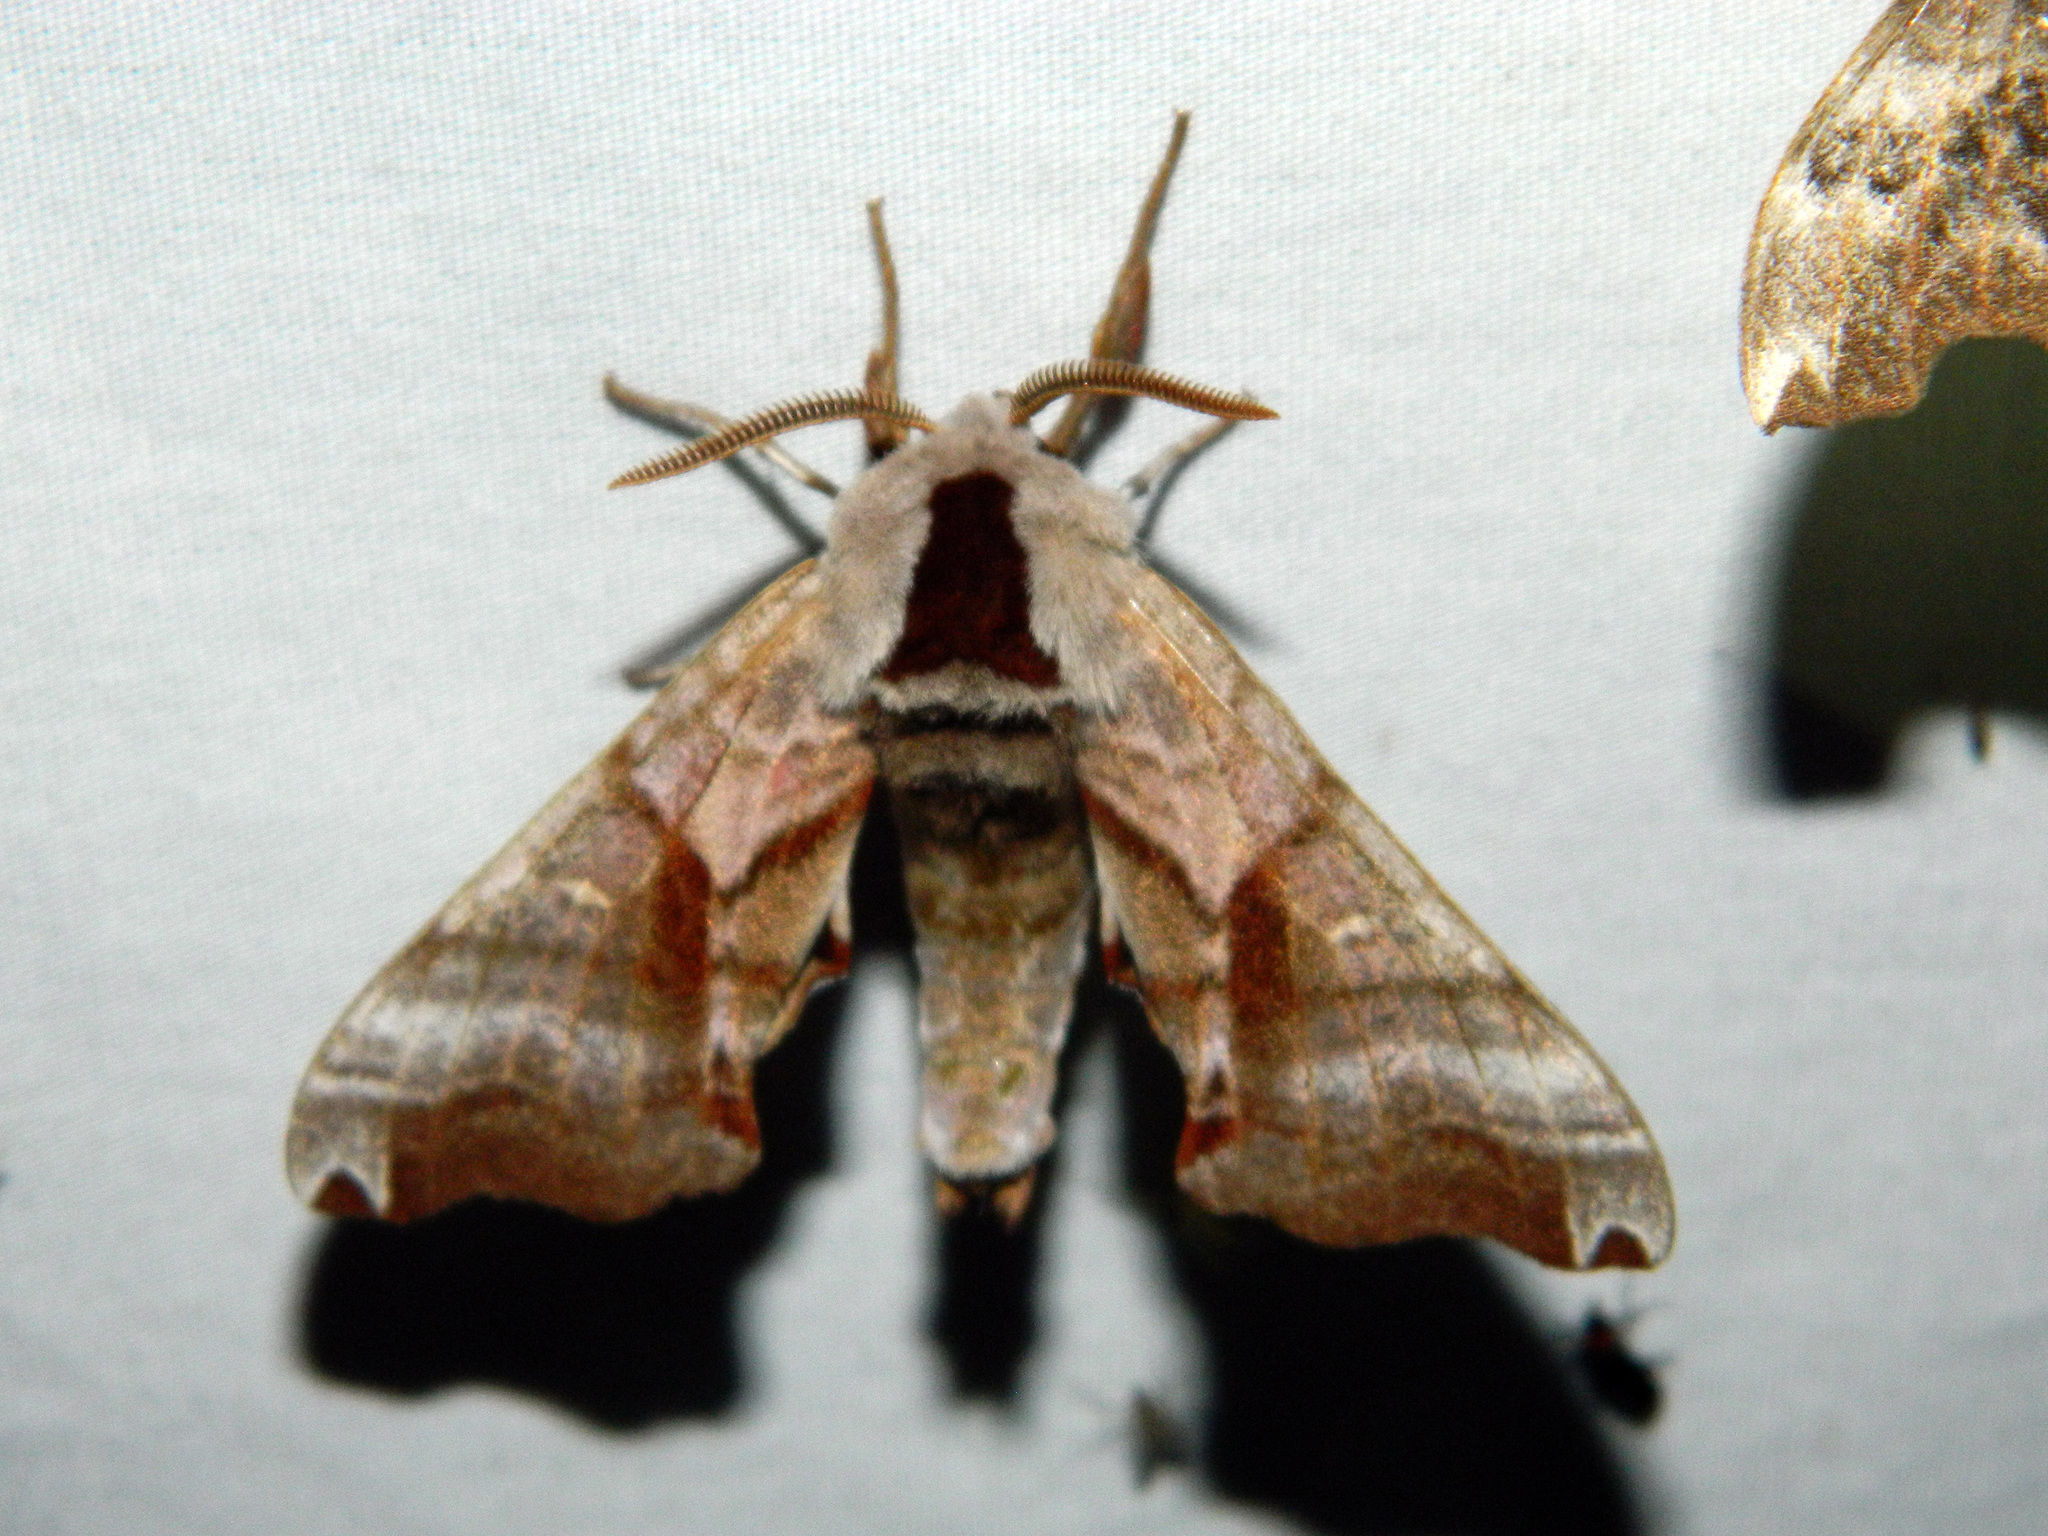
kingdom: Animalia
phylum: Arthropoda
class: Insecta
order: Lepidoptera
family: Sphingidae
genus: Smerinthus
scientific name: Smerinthus jamaicensis
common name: Twin spotted sphinx
